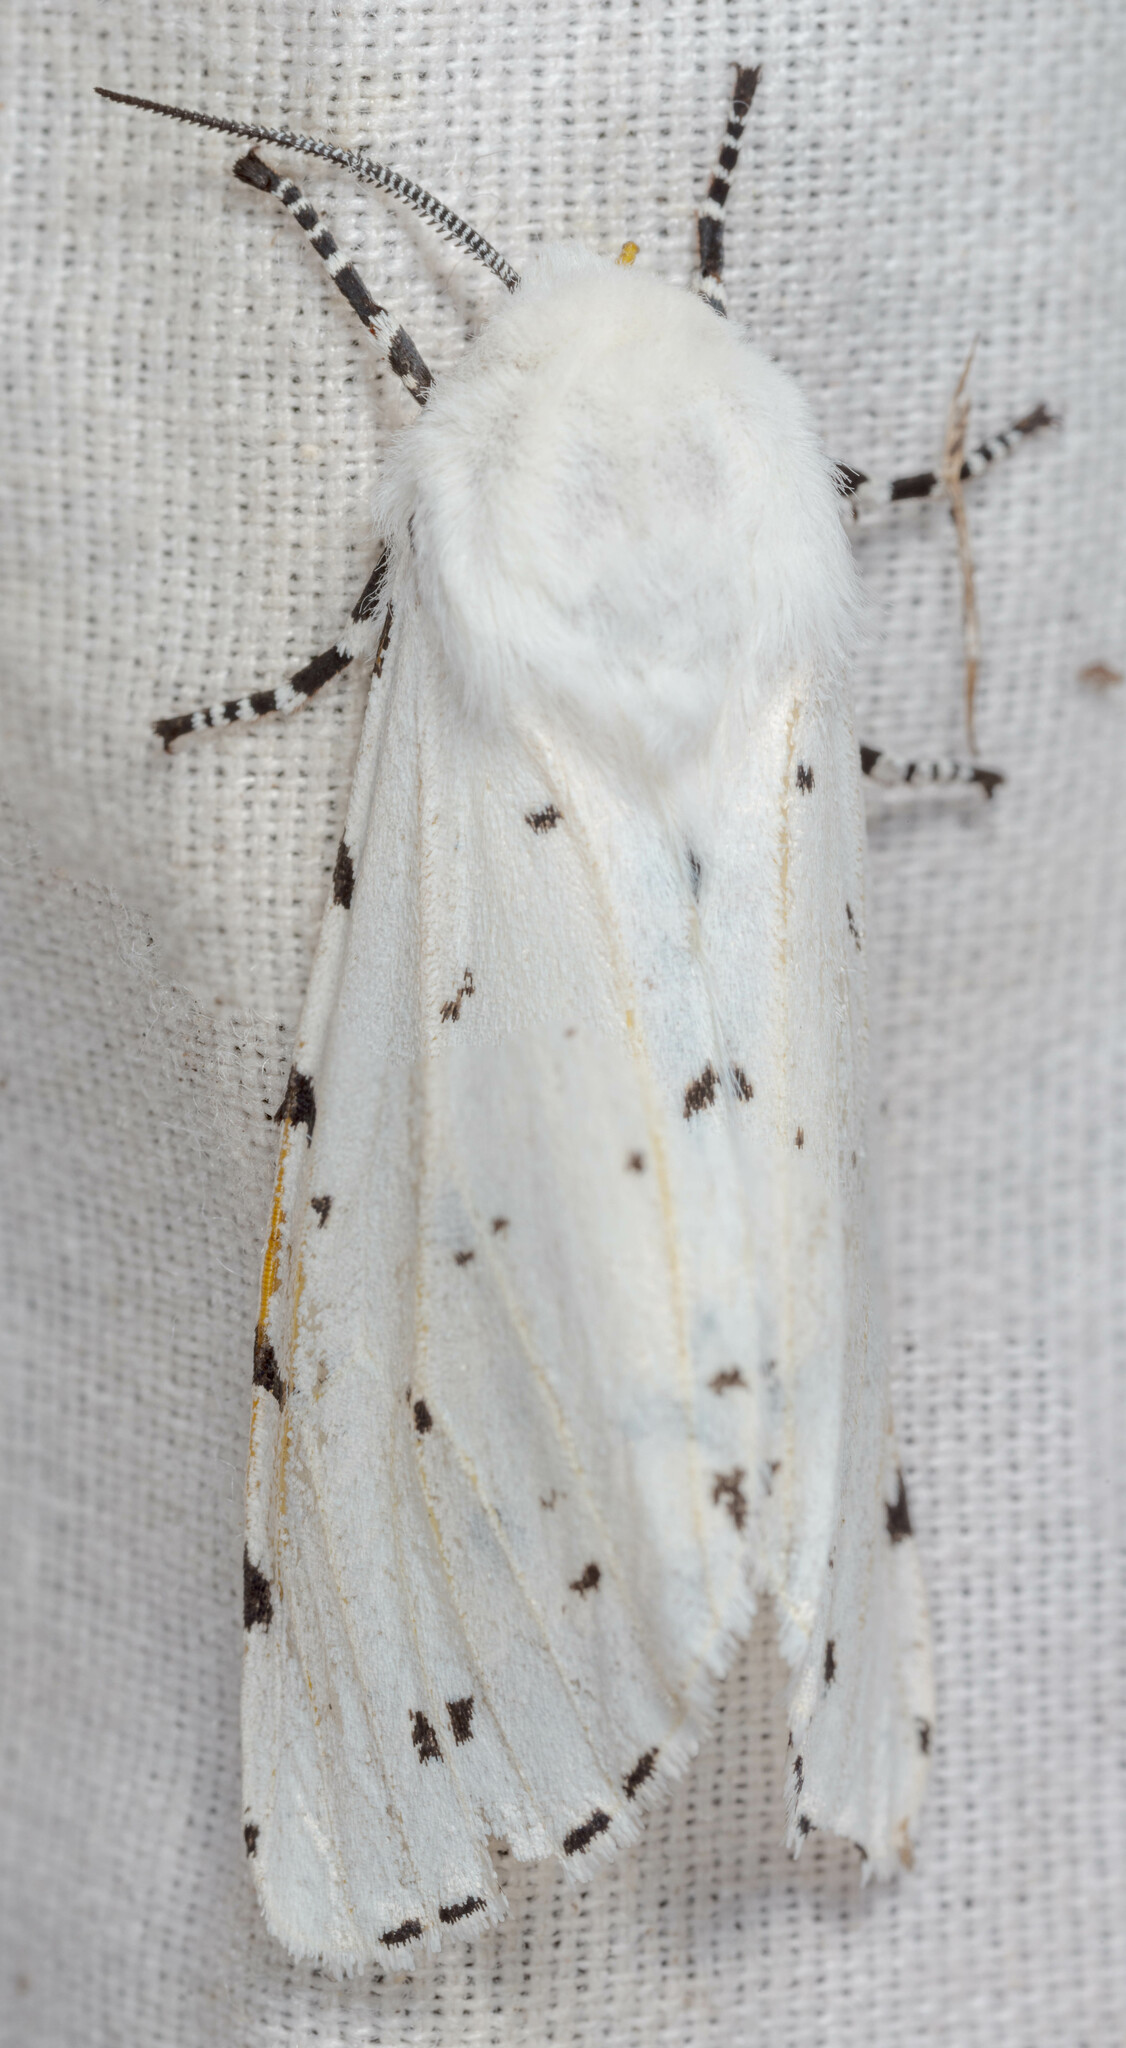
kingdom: Animalia
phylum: Arthropoda
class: Insecta
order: Lepidoptera
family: Erebidae
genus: Estigmene
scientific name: Estigmene acrea
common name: Salt marsh moth
